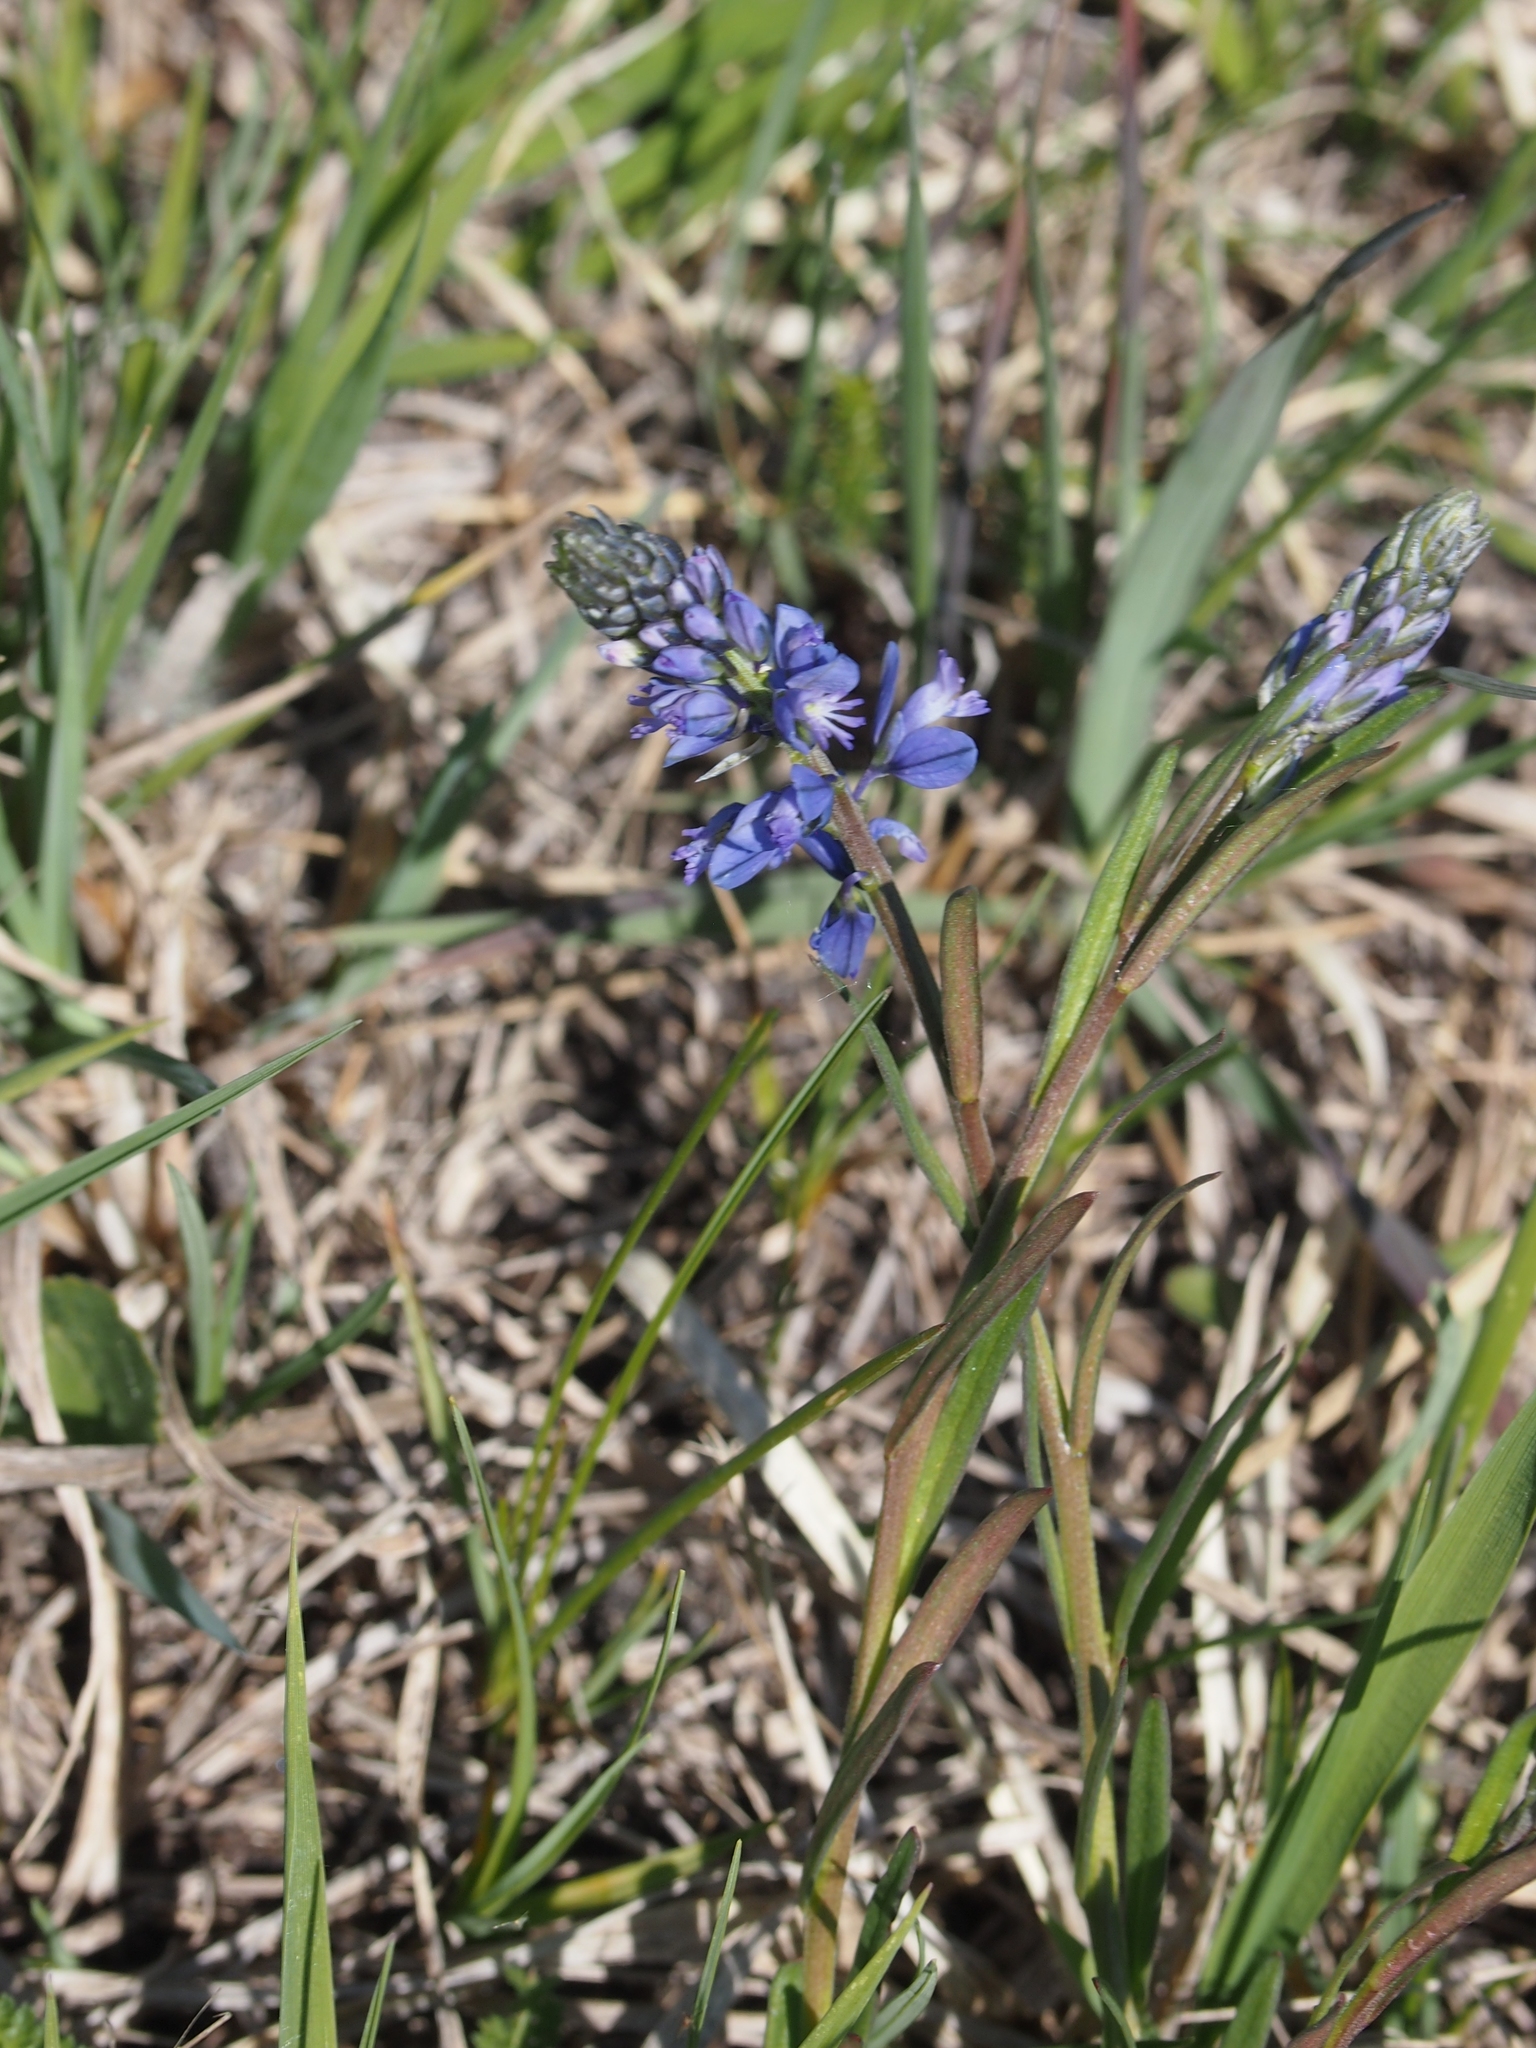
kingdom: Plantae
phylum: Tracheophyta
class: Magnoliopsida
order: Fabales
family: Polygalaceae
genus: Polygala
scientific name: Polygala comosa
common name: Tufted milkwort
